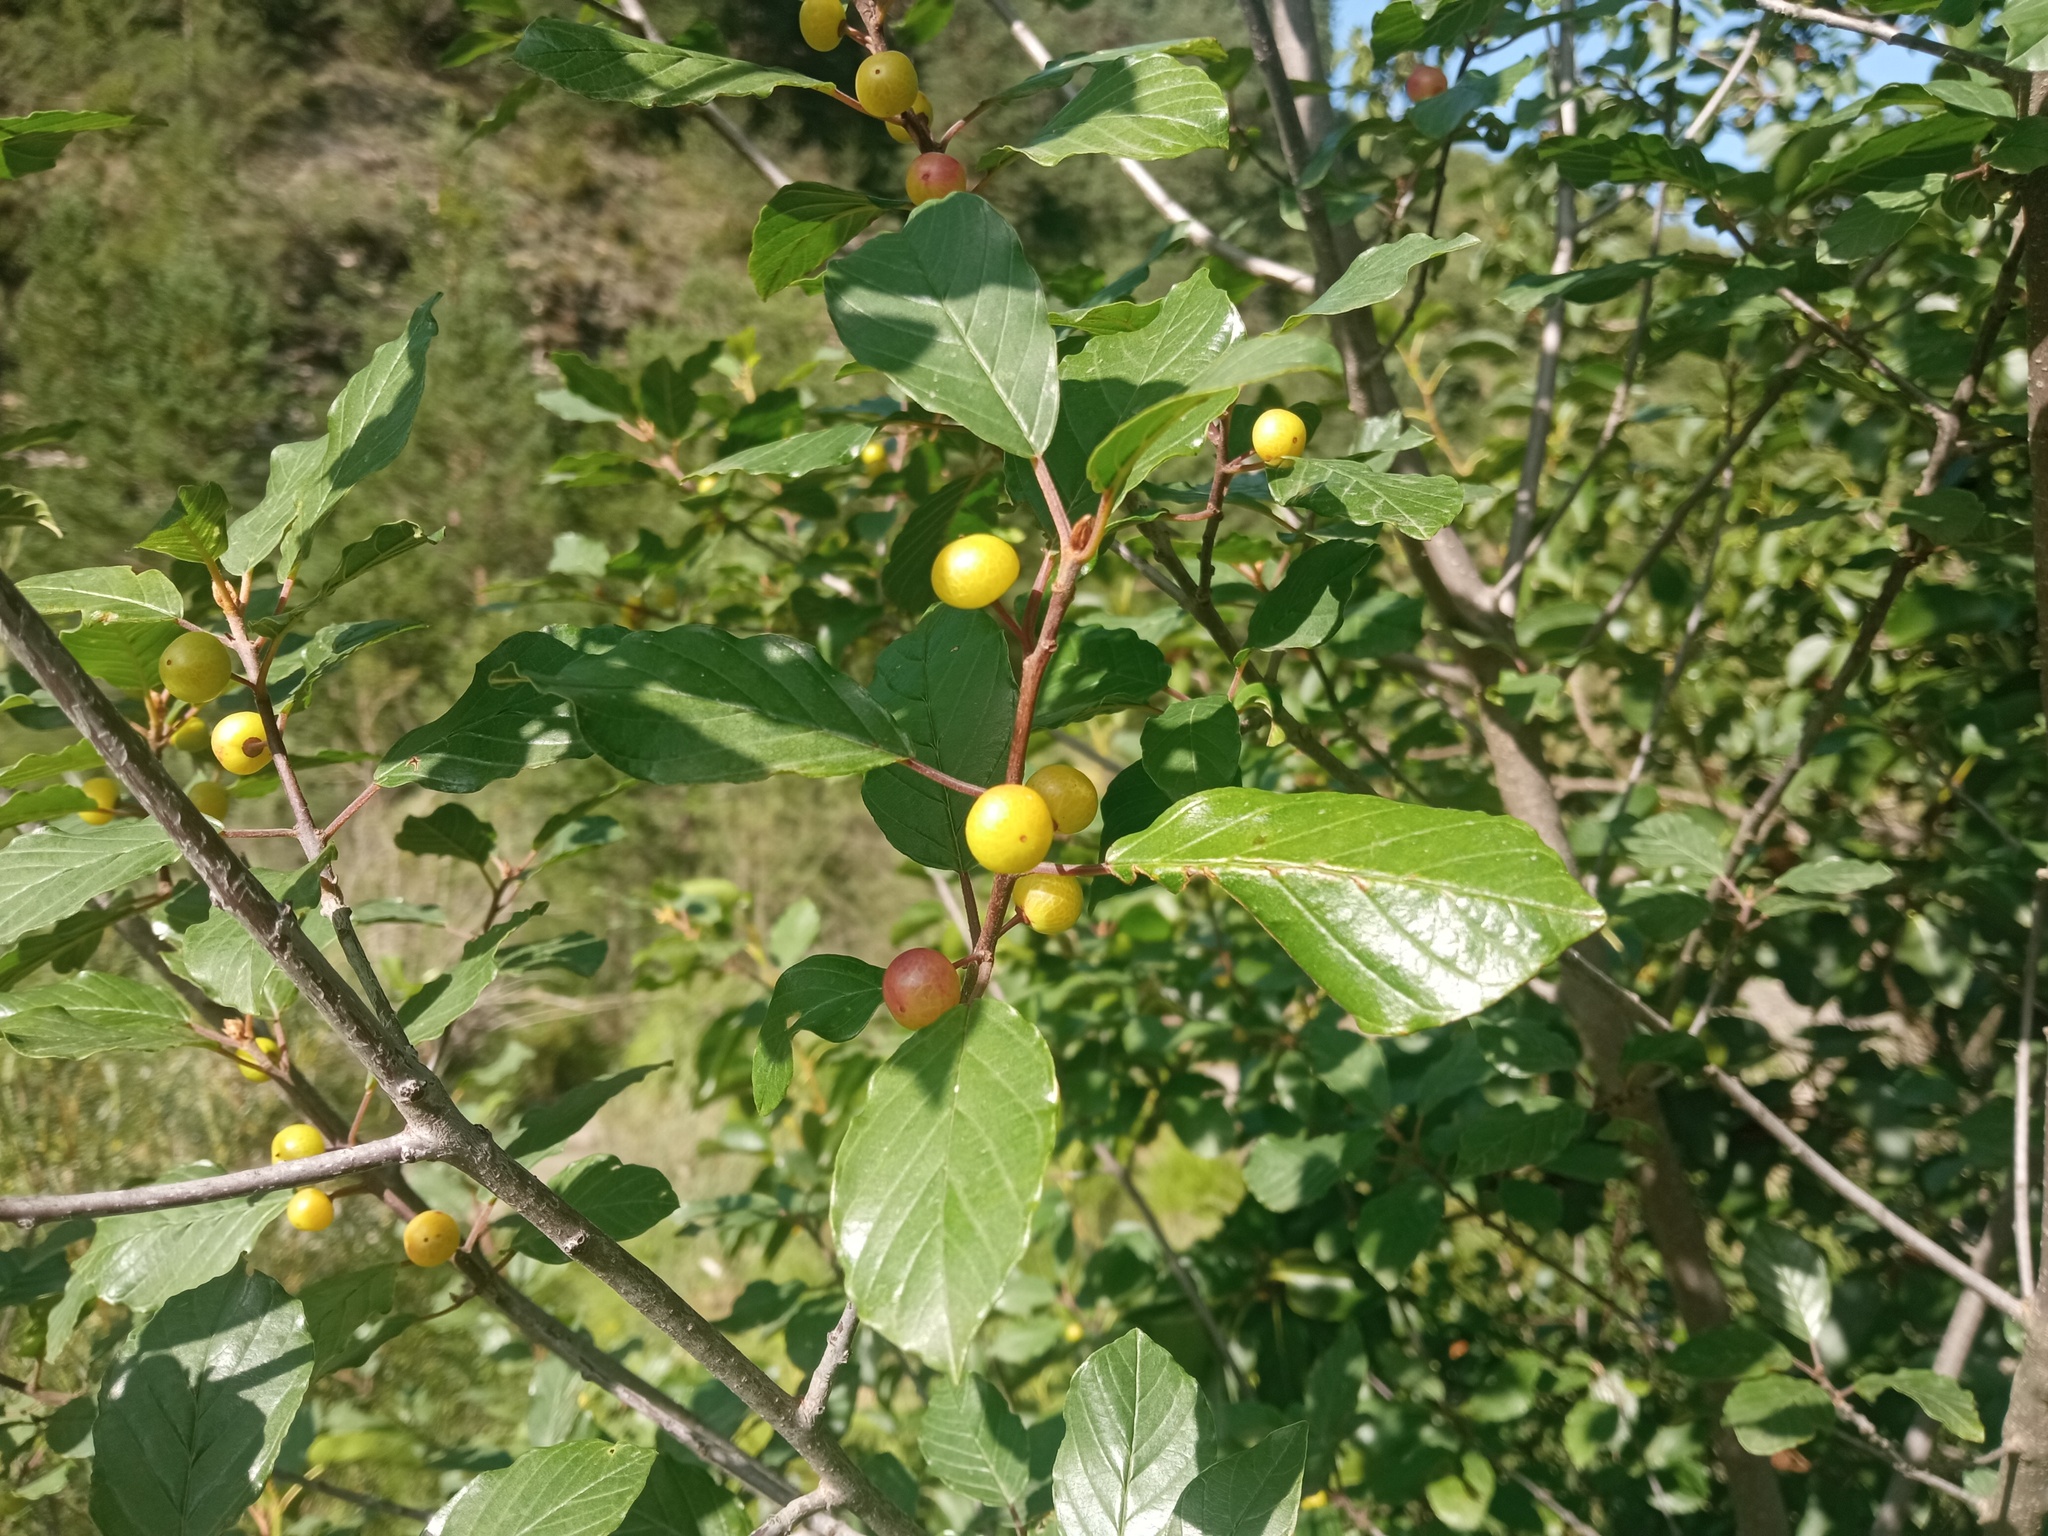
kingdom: Plantae
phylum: Tracheophyta
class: Magnoliopsida
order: Rosales
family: Rhamnaceae
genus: Frangula
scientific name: Frangula alnus
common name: Alder buckthorn
